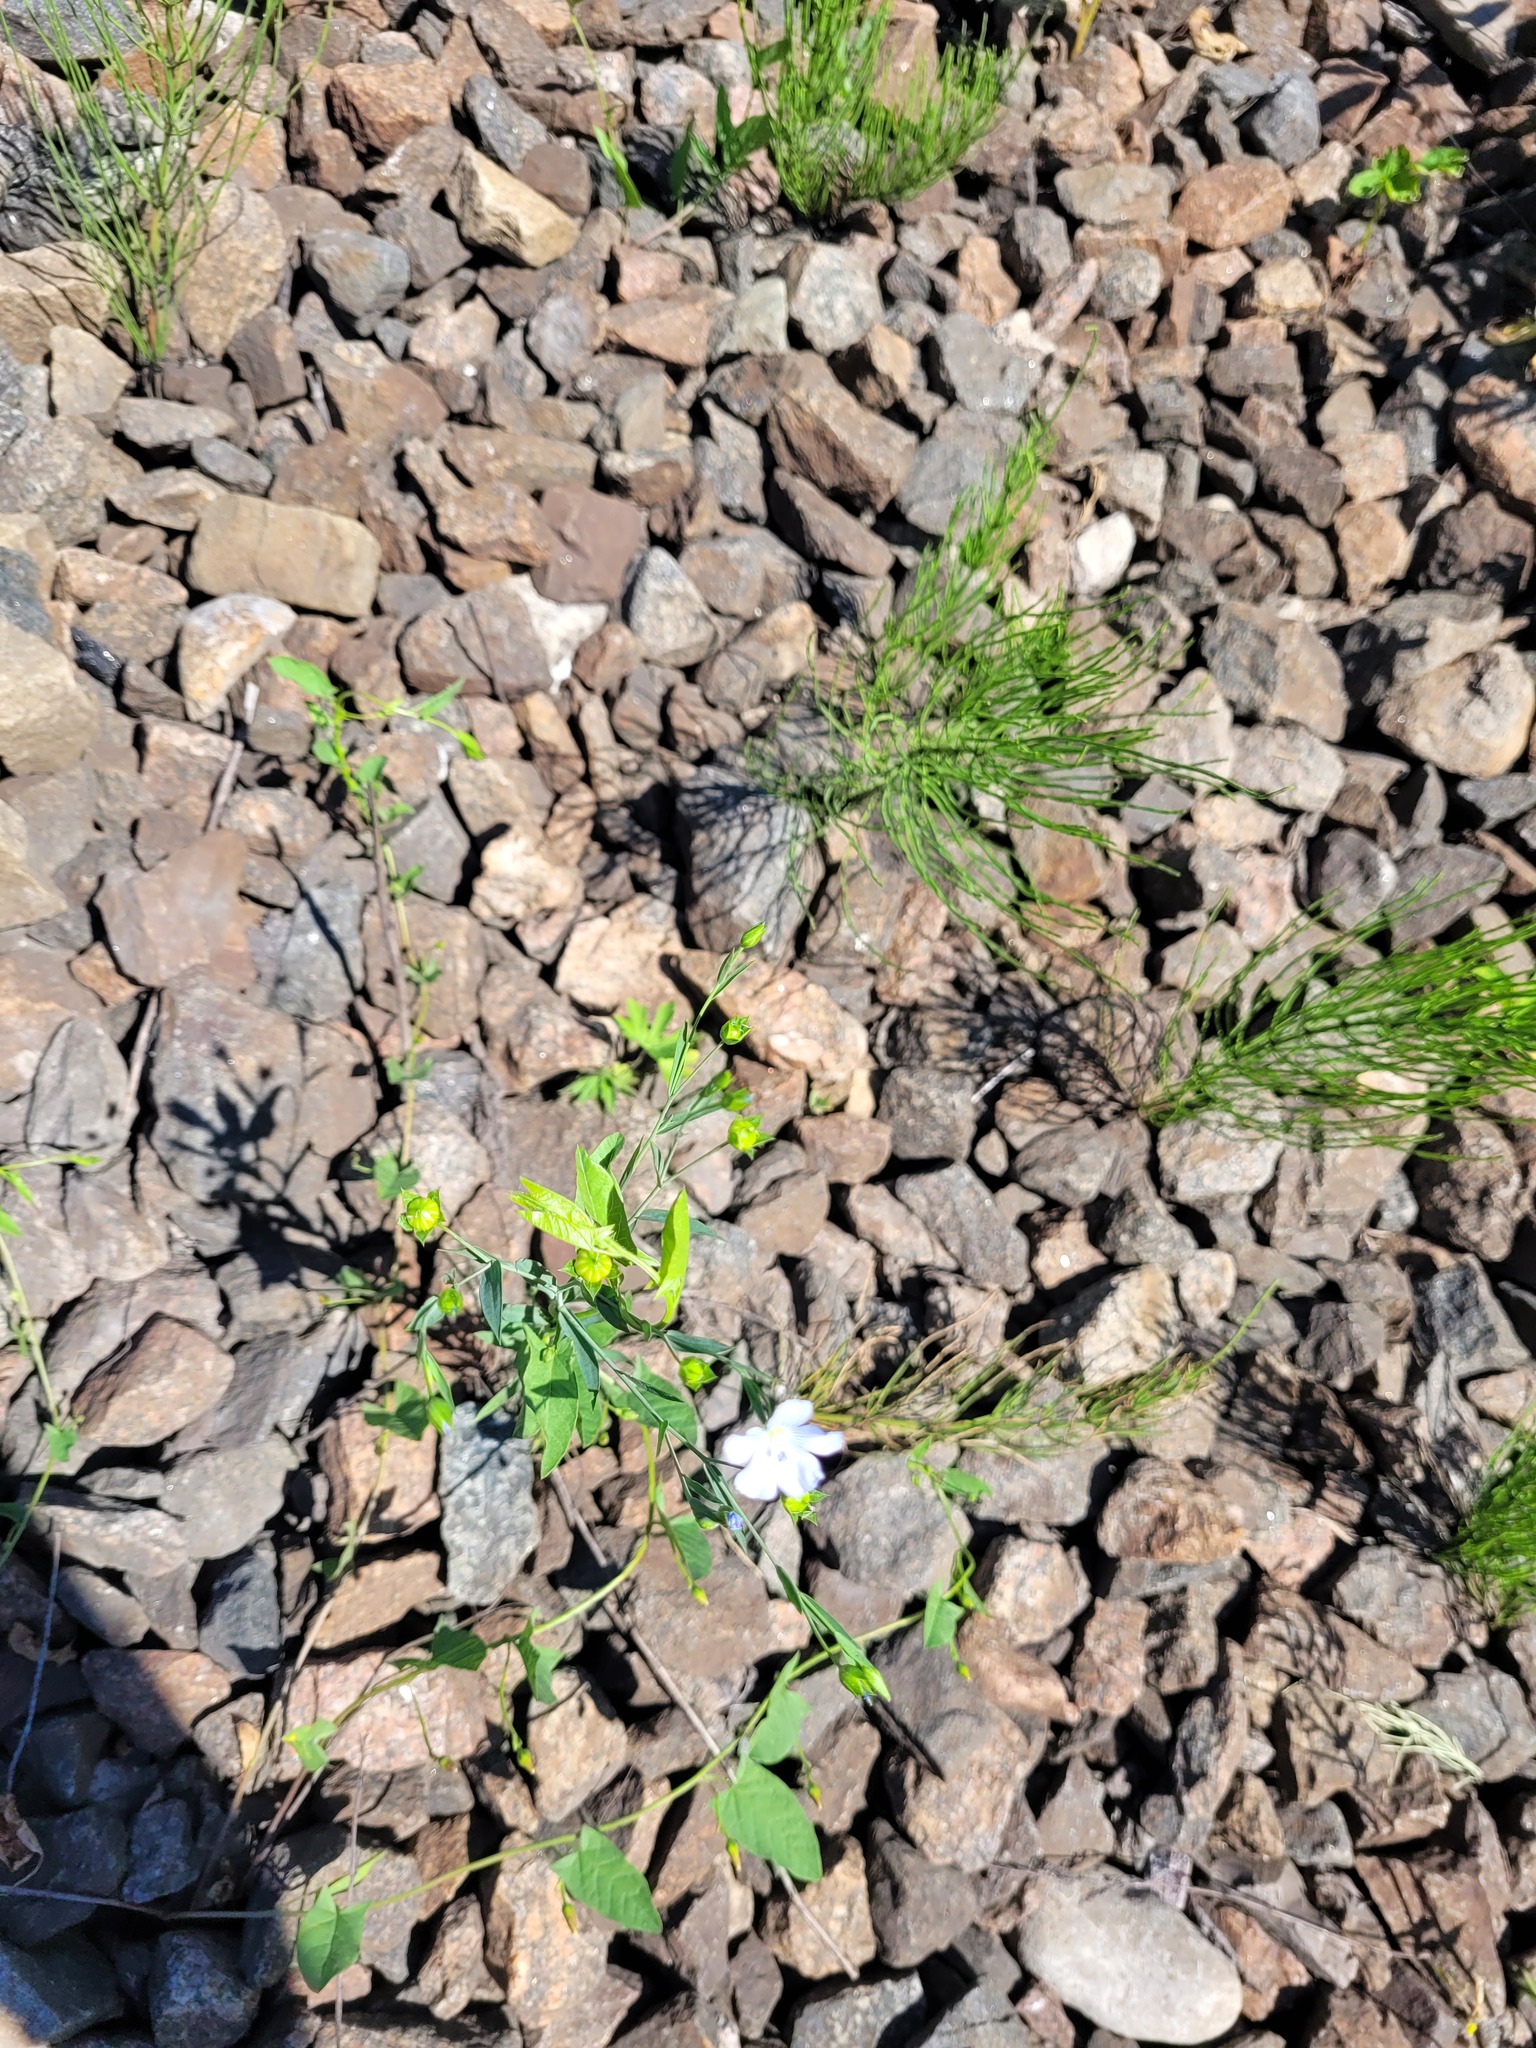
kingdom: Plantae
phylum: Tracheophyta
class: Magnoliopsida
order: Malpighiales
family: Linaceae
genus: Linum
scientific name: Linum usitatissimum
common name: Flax
